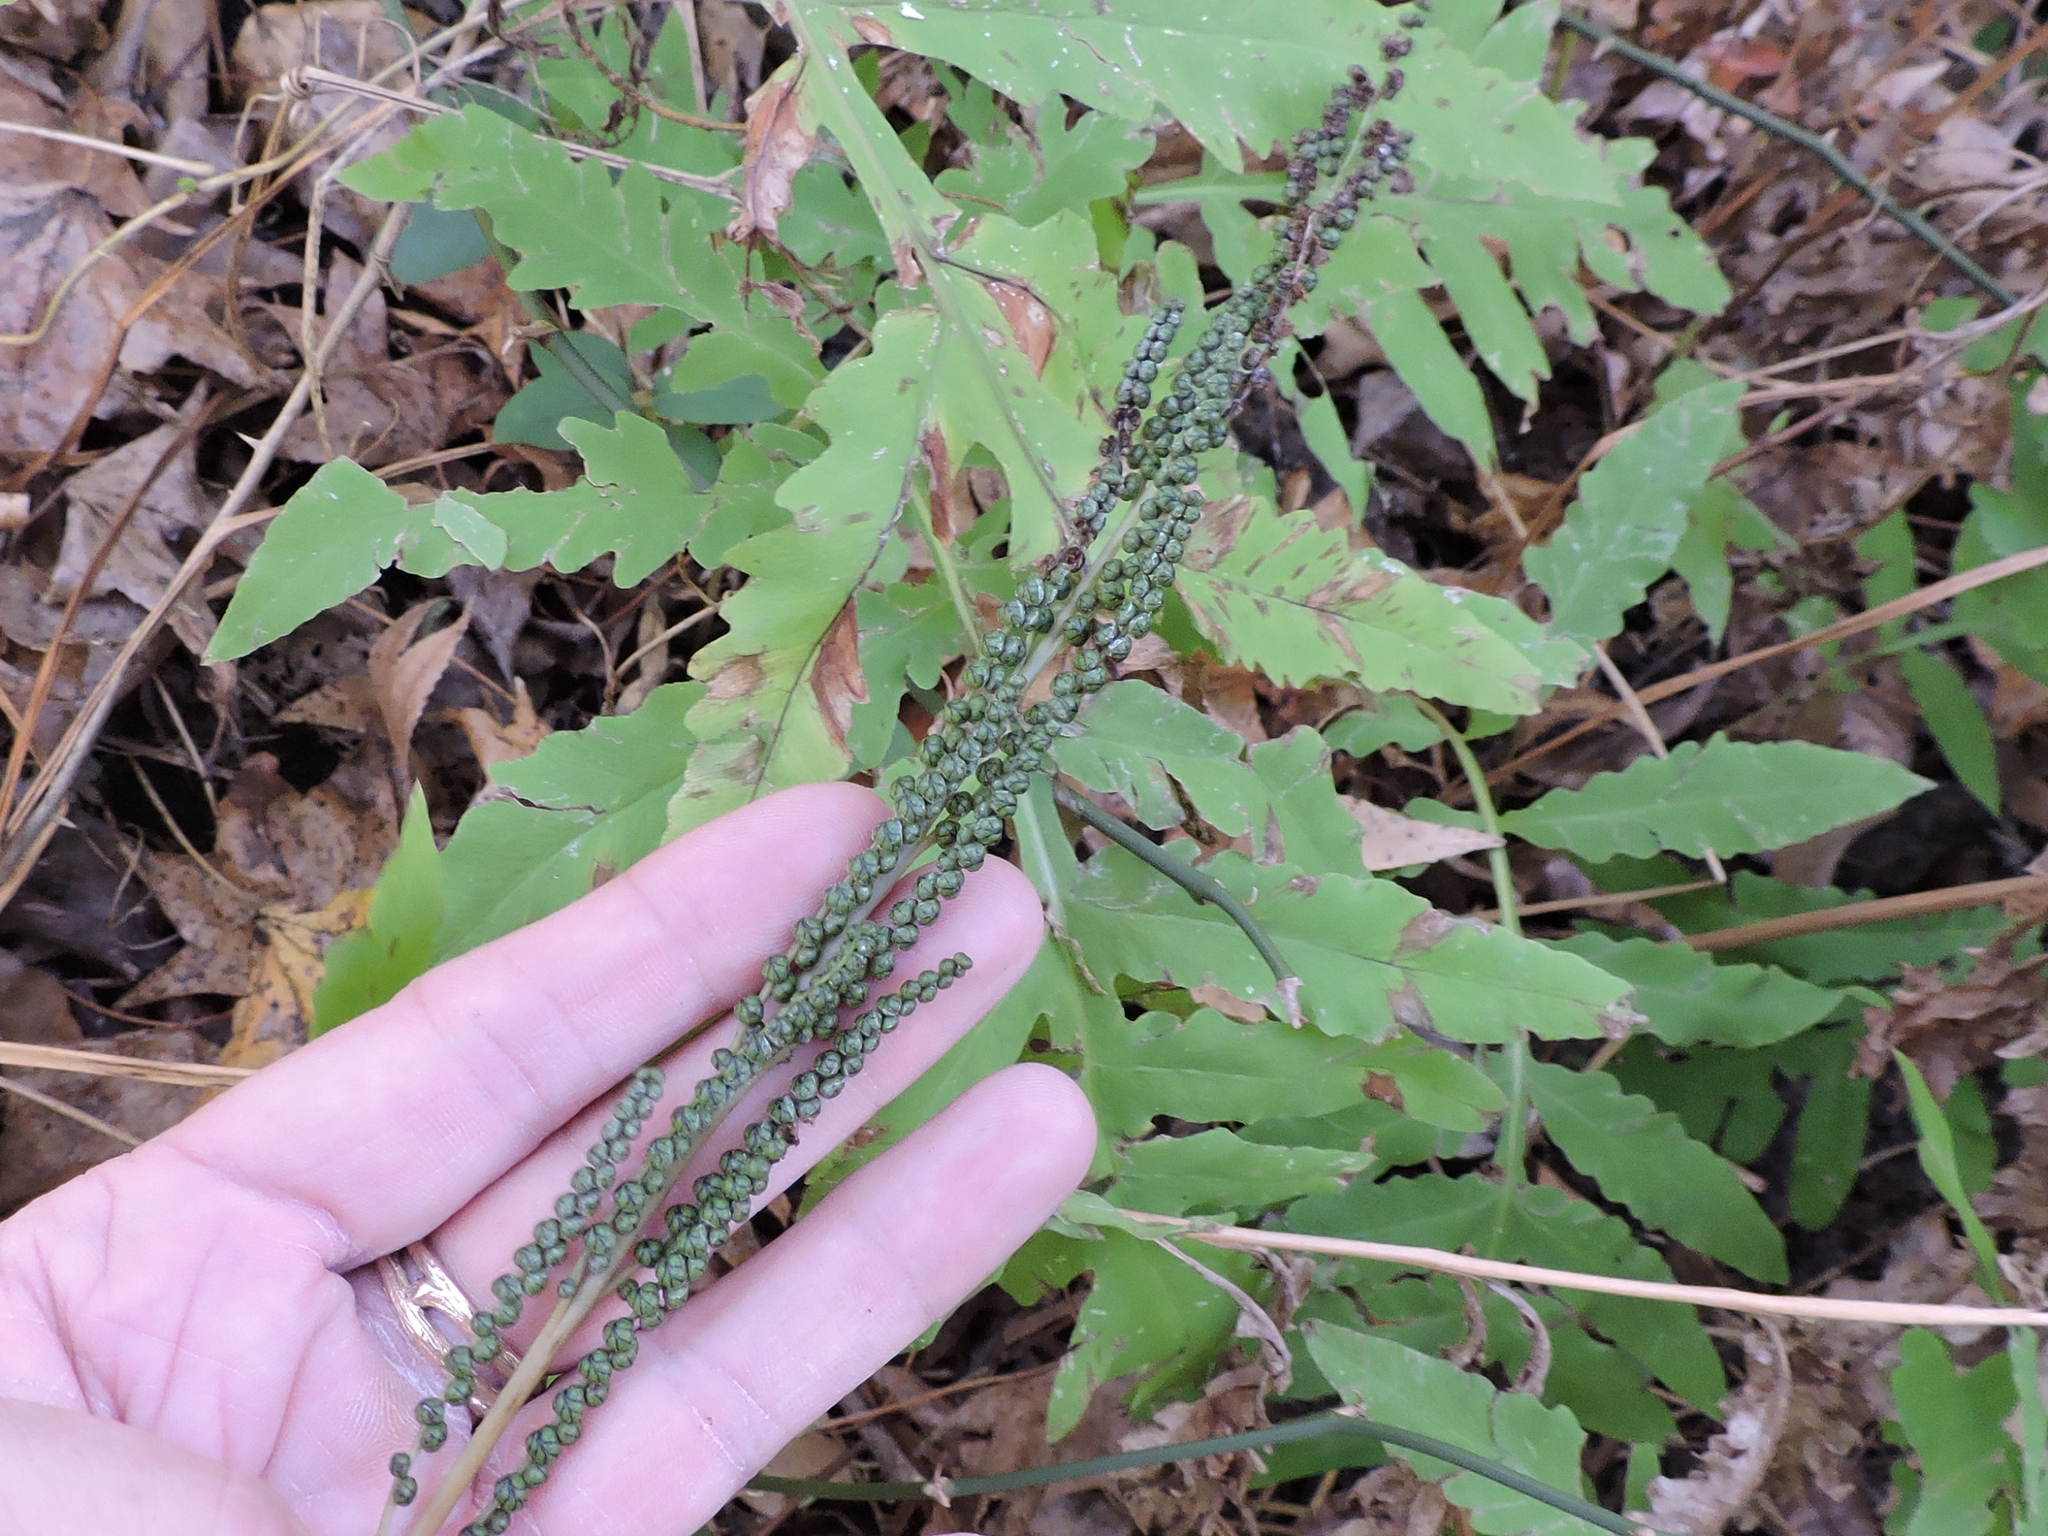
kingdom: Plantae
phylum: Tracheophyta
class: Polypodiopsida
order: Polypodiales
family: Onocleaceae
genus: Onoclea
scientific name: Onoclea sensibilis
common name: Sensitive fern
